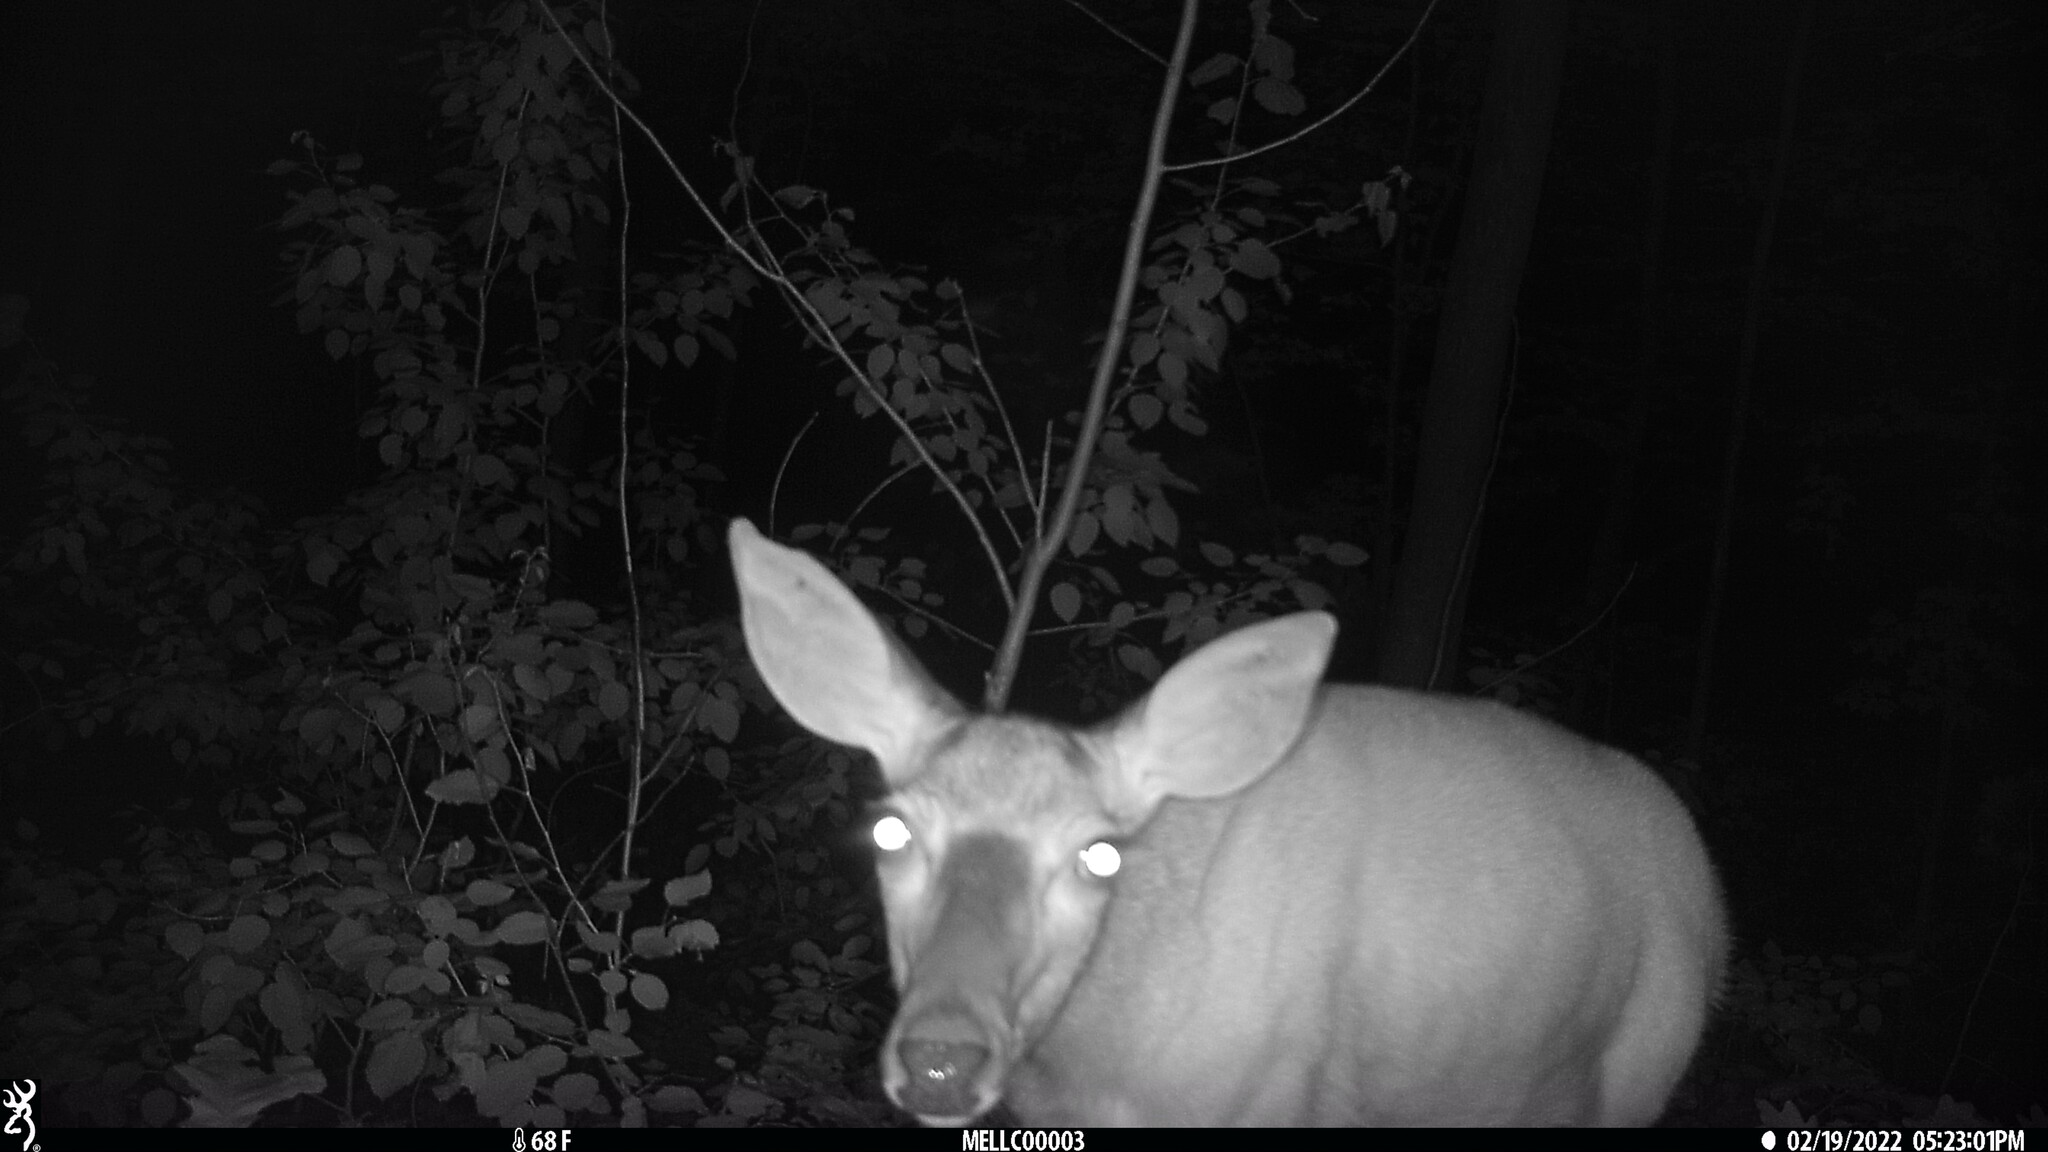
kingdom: Animalia
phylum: Chordata
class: Mammalia
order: Artiodactyla
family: Cervidae
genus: Odocoileus
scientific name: Odocoileus virginianus
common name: White-tailed deer
